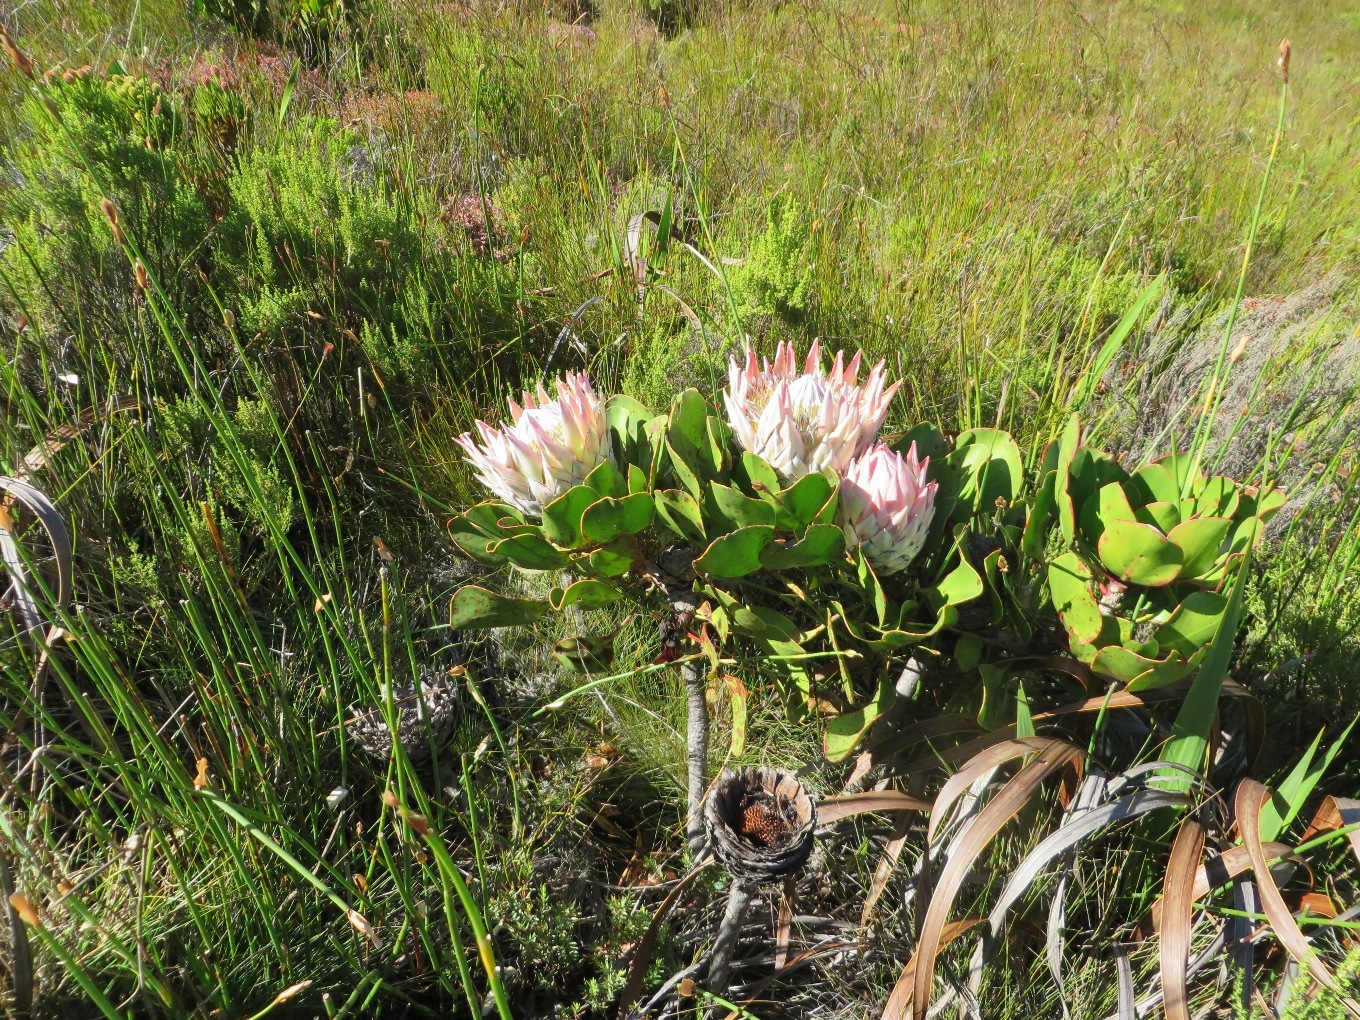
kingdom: Plantae
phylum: Tracheophyta
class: Magnoliopsida
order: Proteales
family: Proteaceae
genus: Protea
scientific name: Protea cynaroides
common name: King protea
